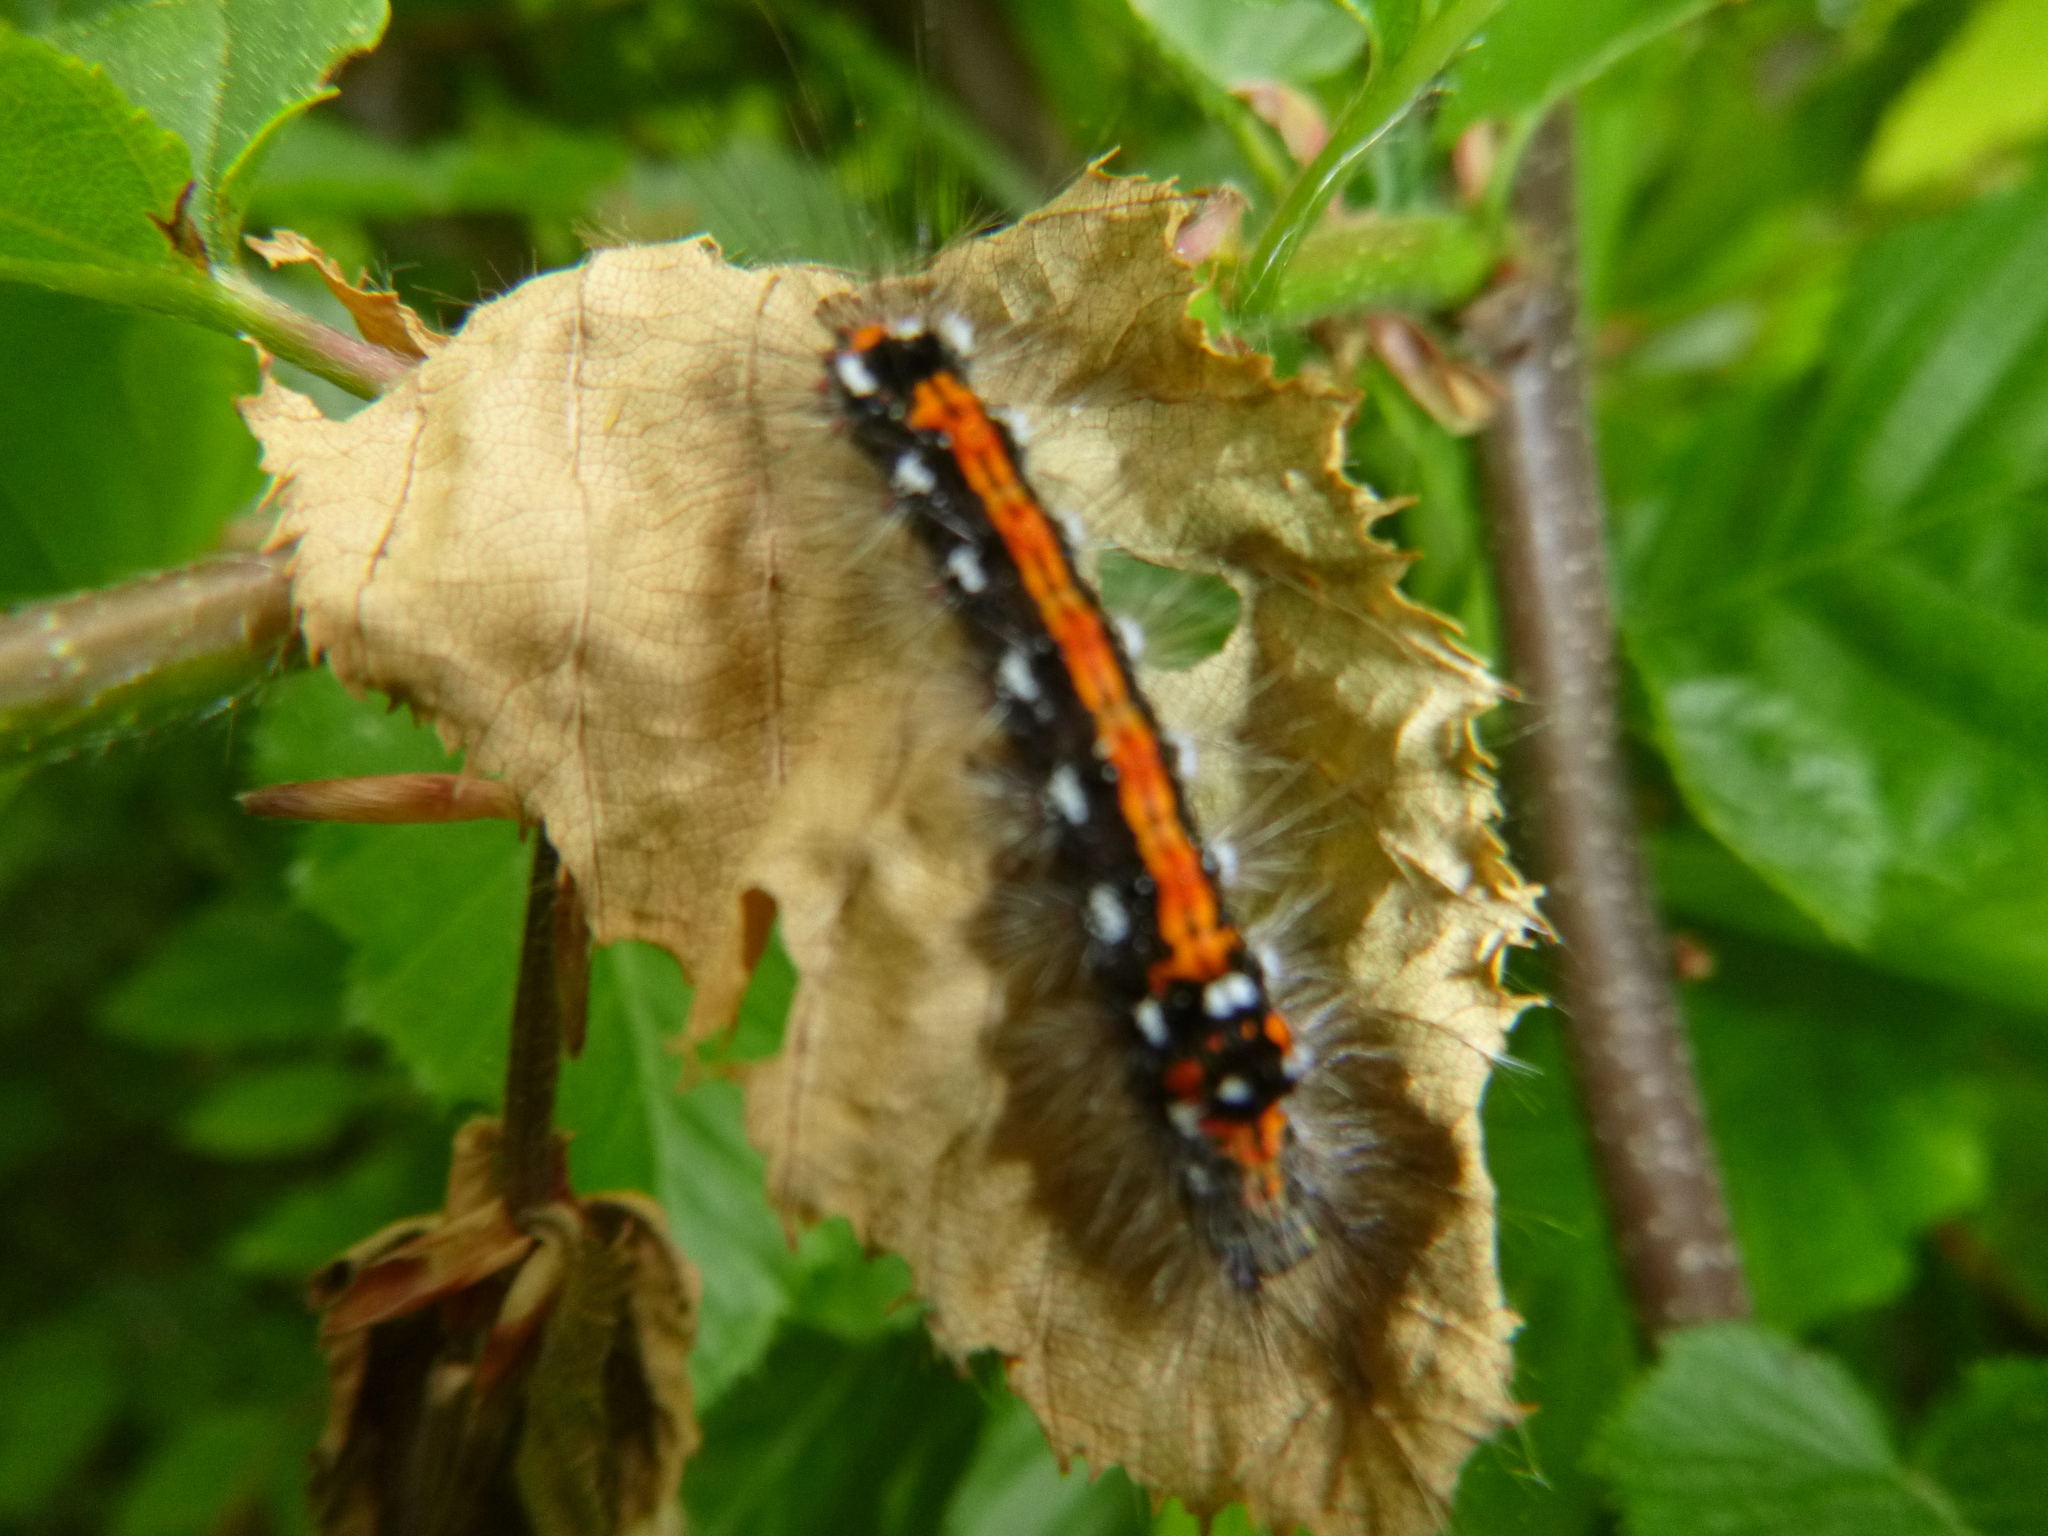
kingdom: Animalia
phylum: Arthropoda
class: Insecta
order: Lepidoptera
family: Erebidae
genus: Sphrageidus
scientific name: Sphrageidus similis
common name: Yellow-tail
